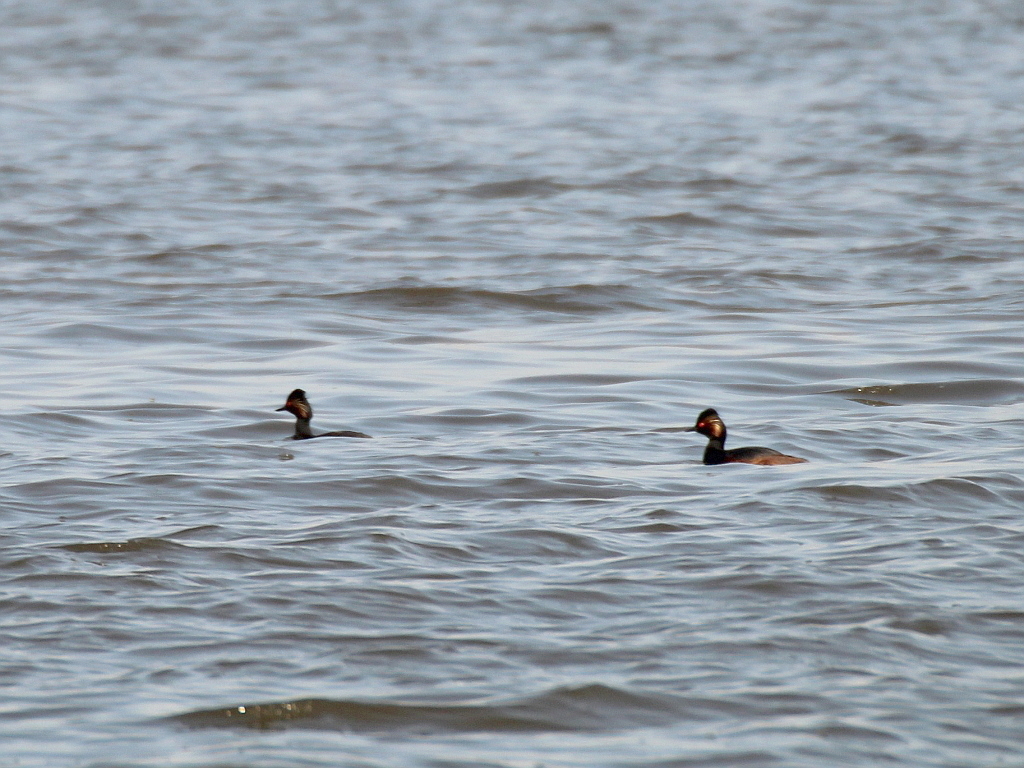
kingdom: Animalia
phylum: Chordata
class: Aves
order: Podicipediformes
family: Podicipedidae
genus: Podiceps
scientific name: Podiceps nigricollis
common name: Black-necked grebe
